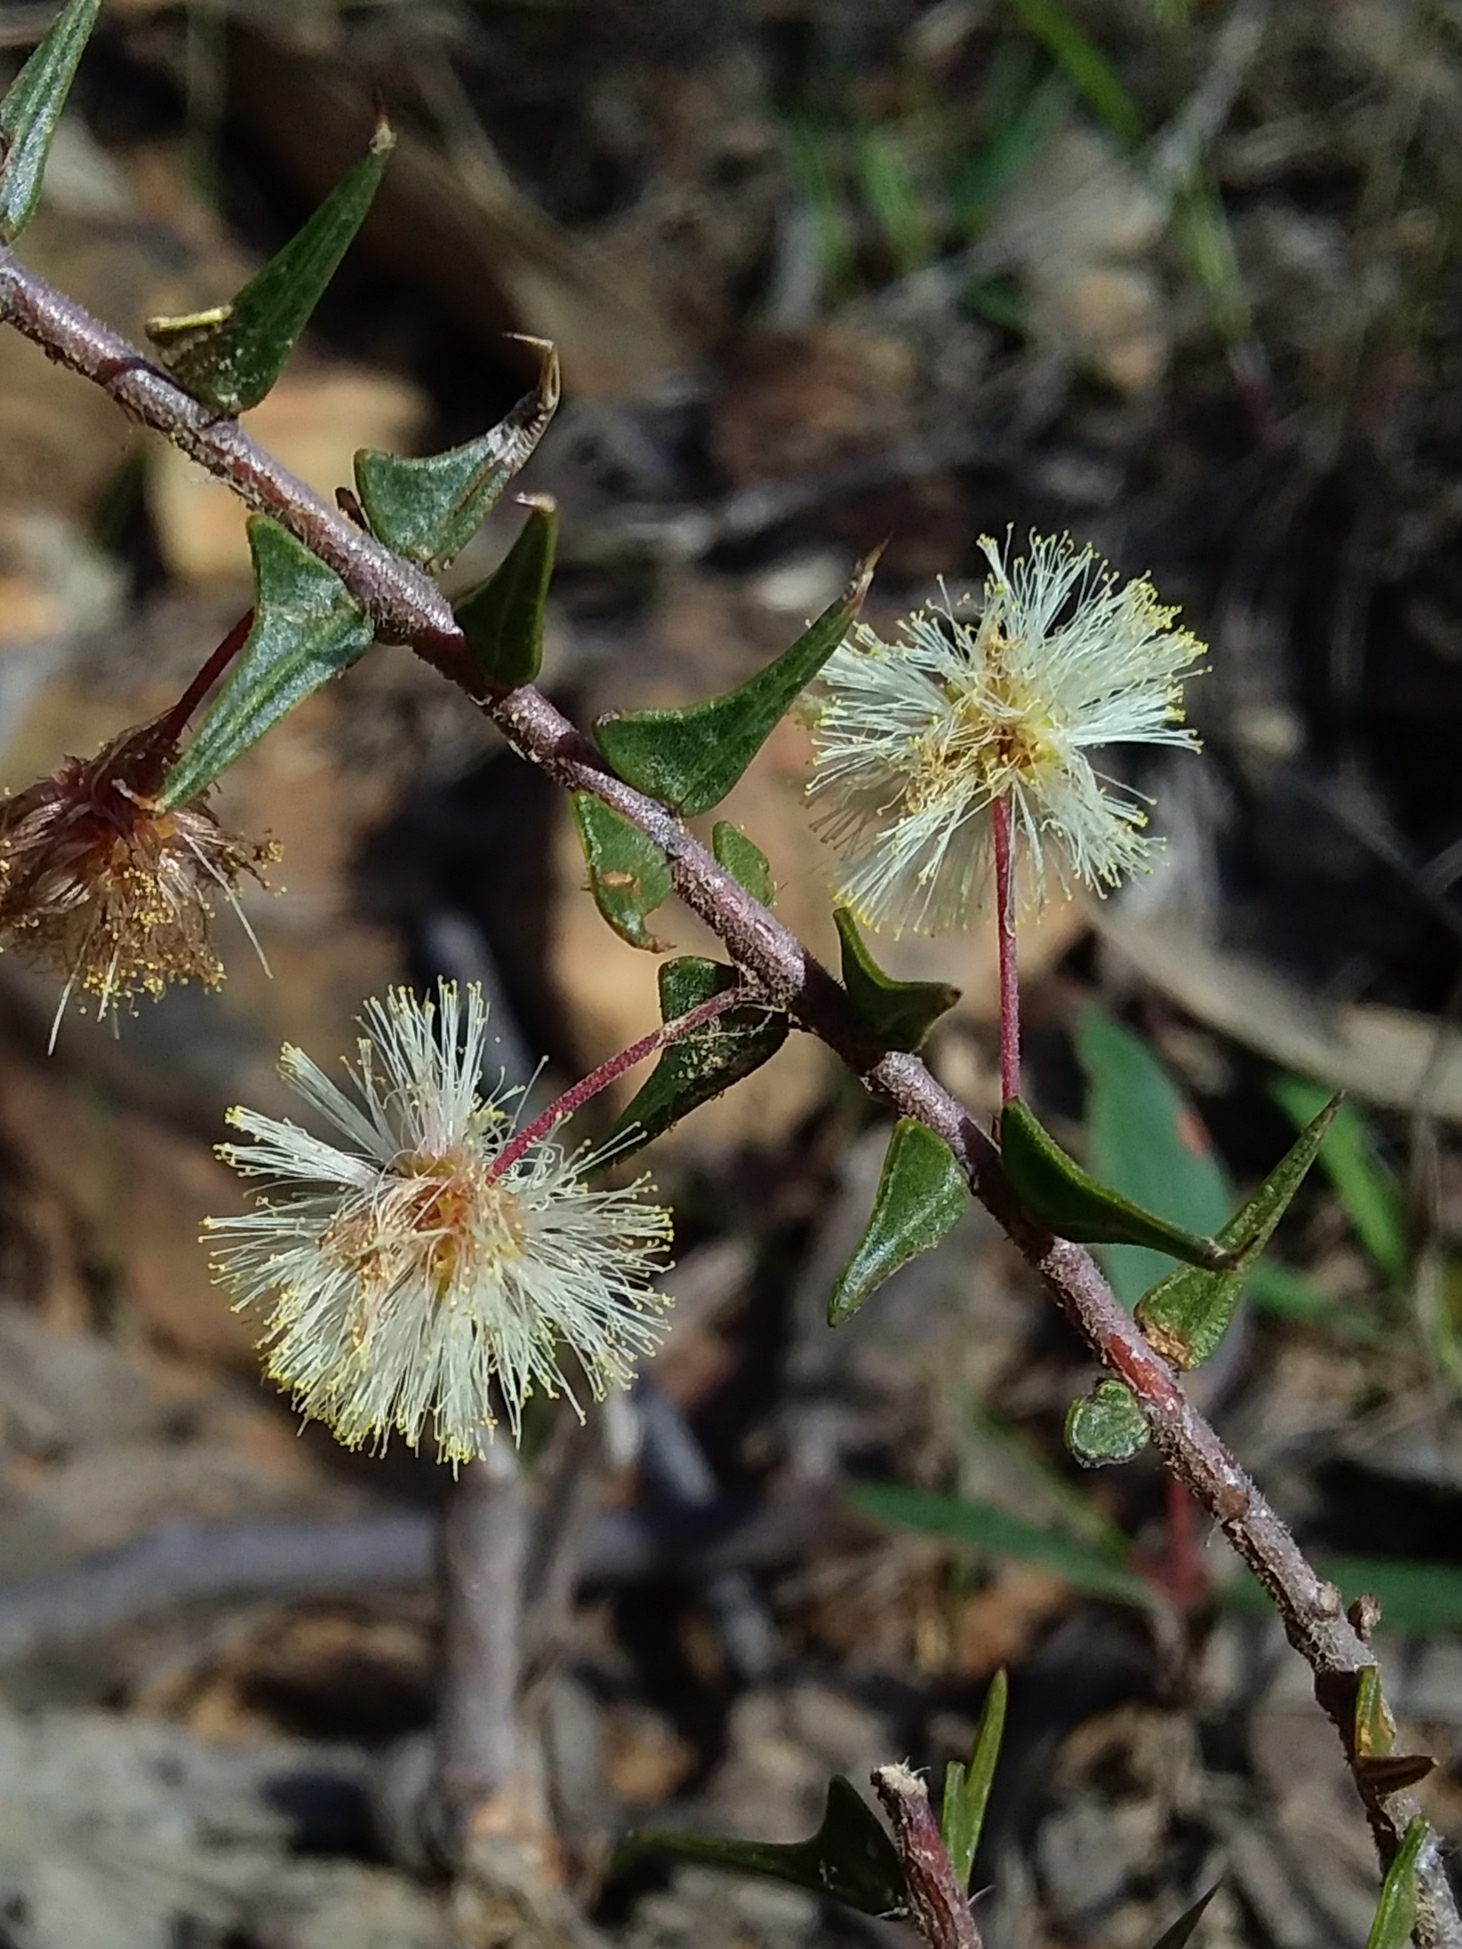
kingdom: Plantae
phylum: Tracheophyta
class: Magnoliopsida
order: Fabales
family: Fabaceae
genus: Acacia
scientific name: Acacia gunnii
